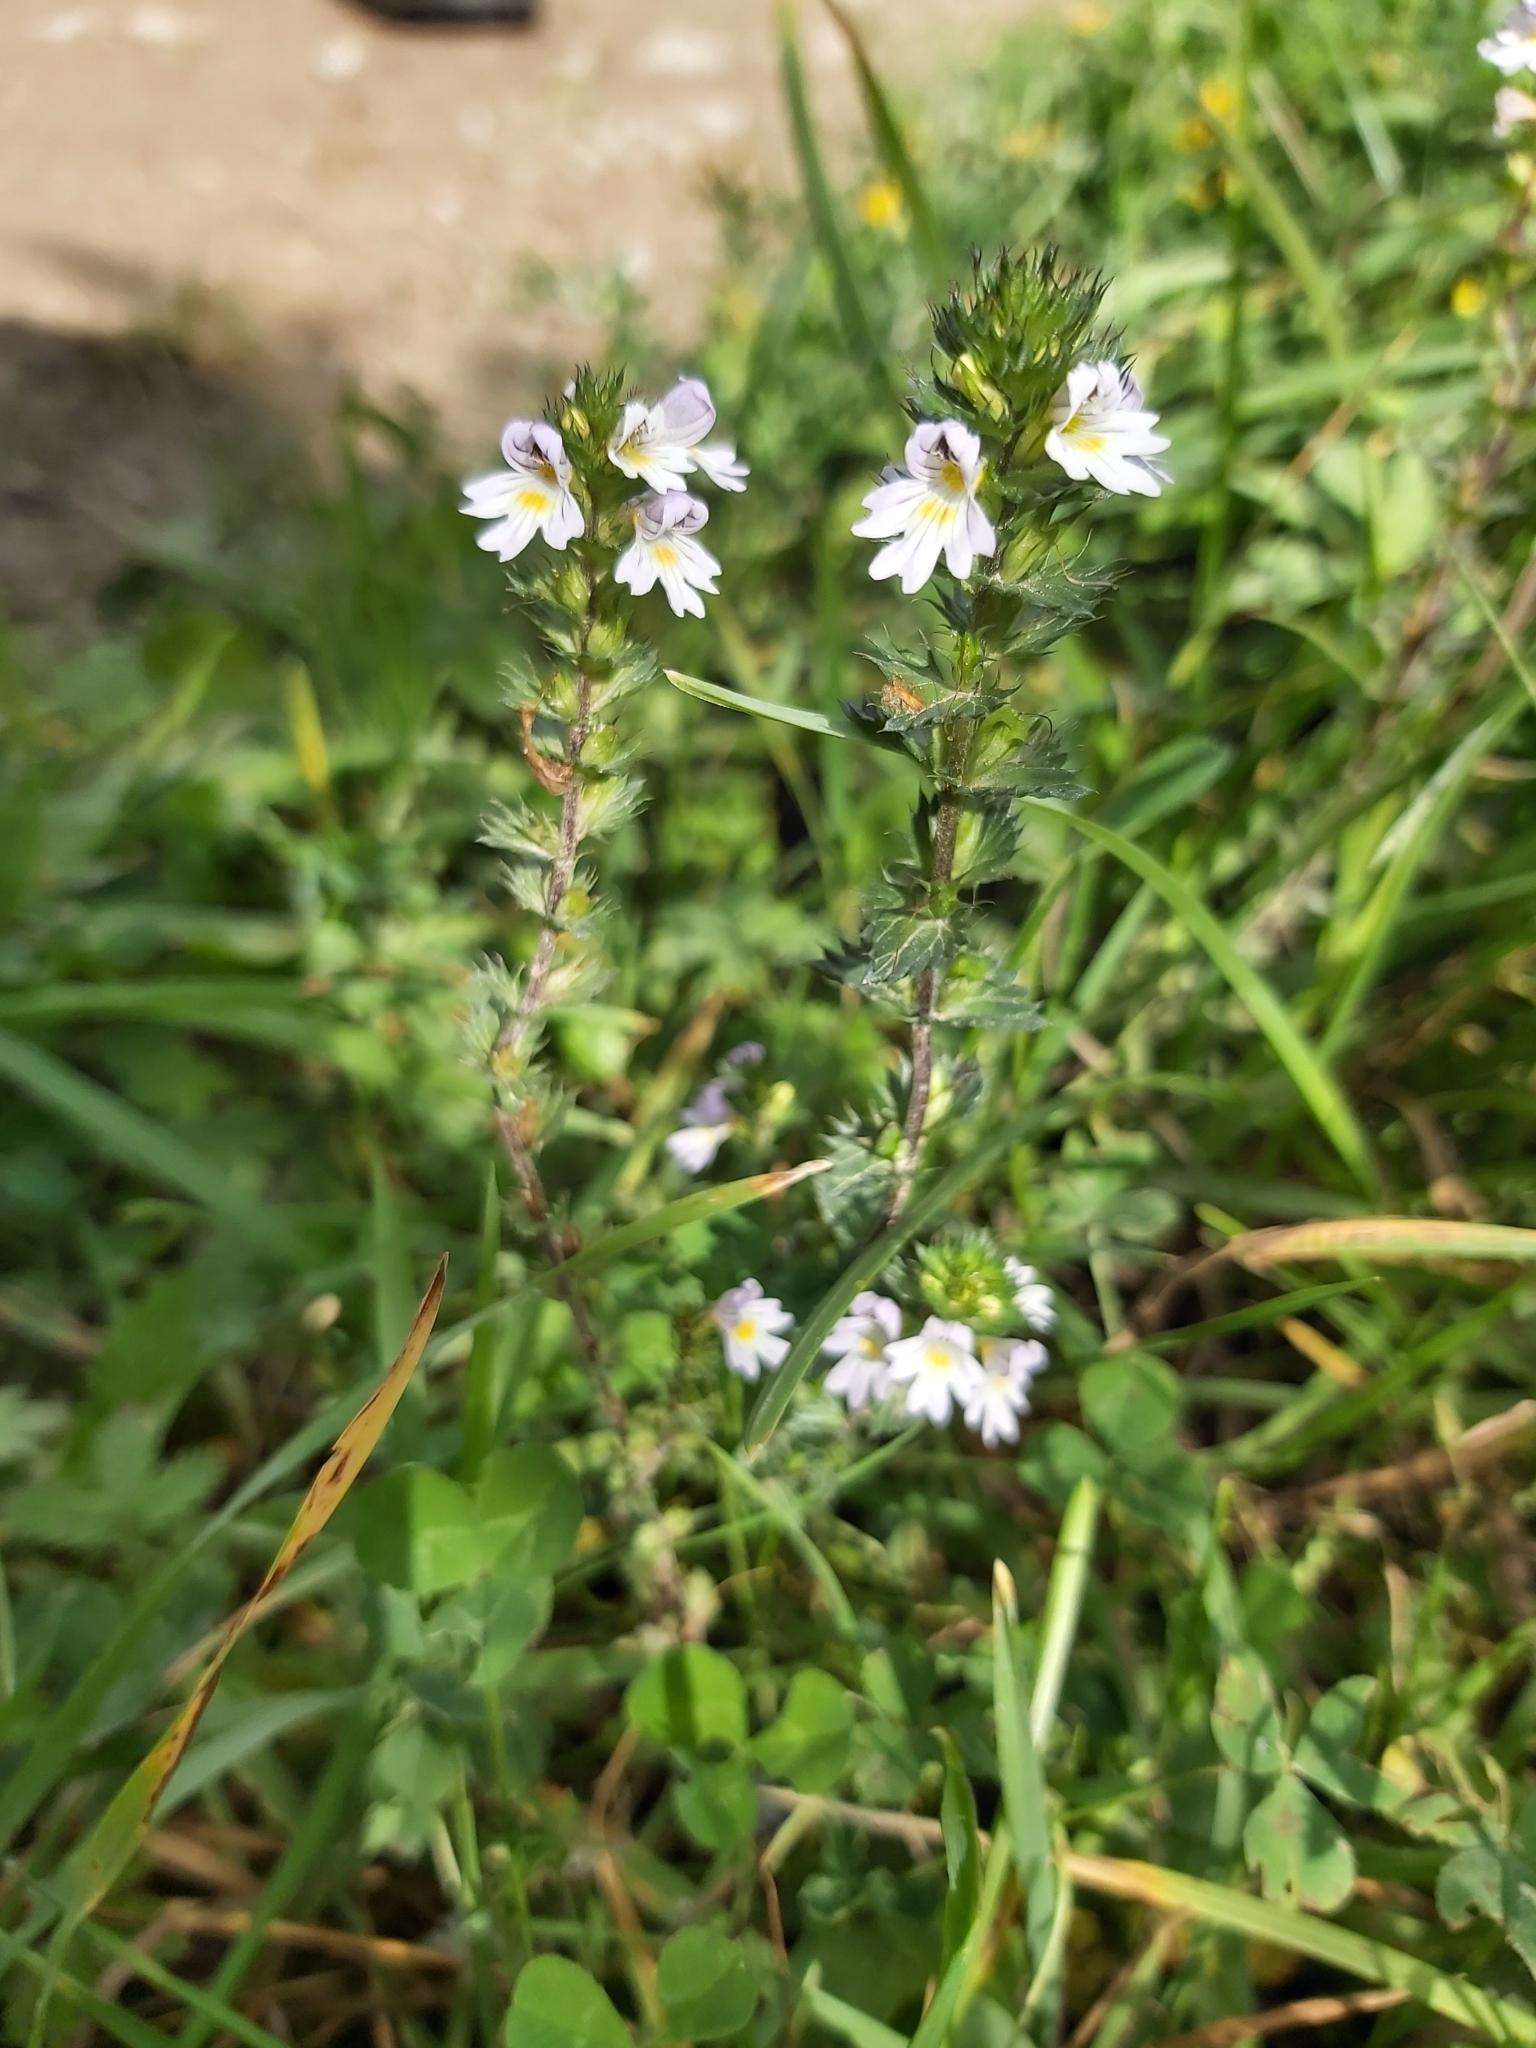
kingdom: Plantae
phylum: Tracheophyta
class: Magnoliopsida
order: Lamiales
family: Orobanchaceae
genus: Euphrasia
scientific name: Euphrasia stricta
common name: Drug eyebright
